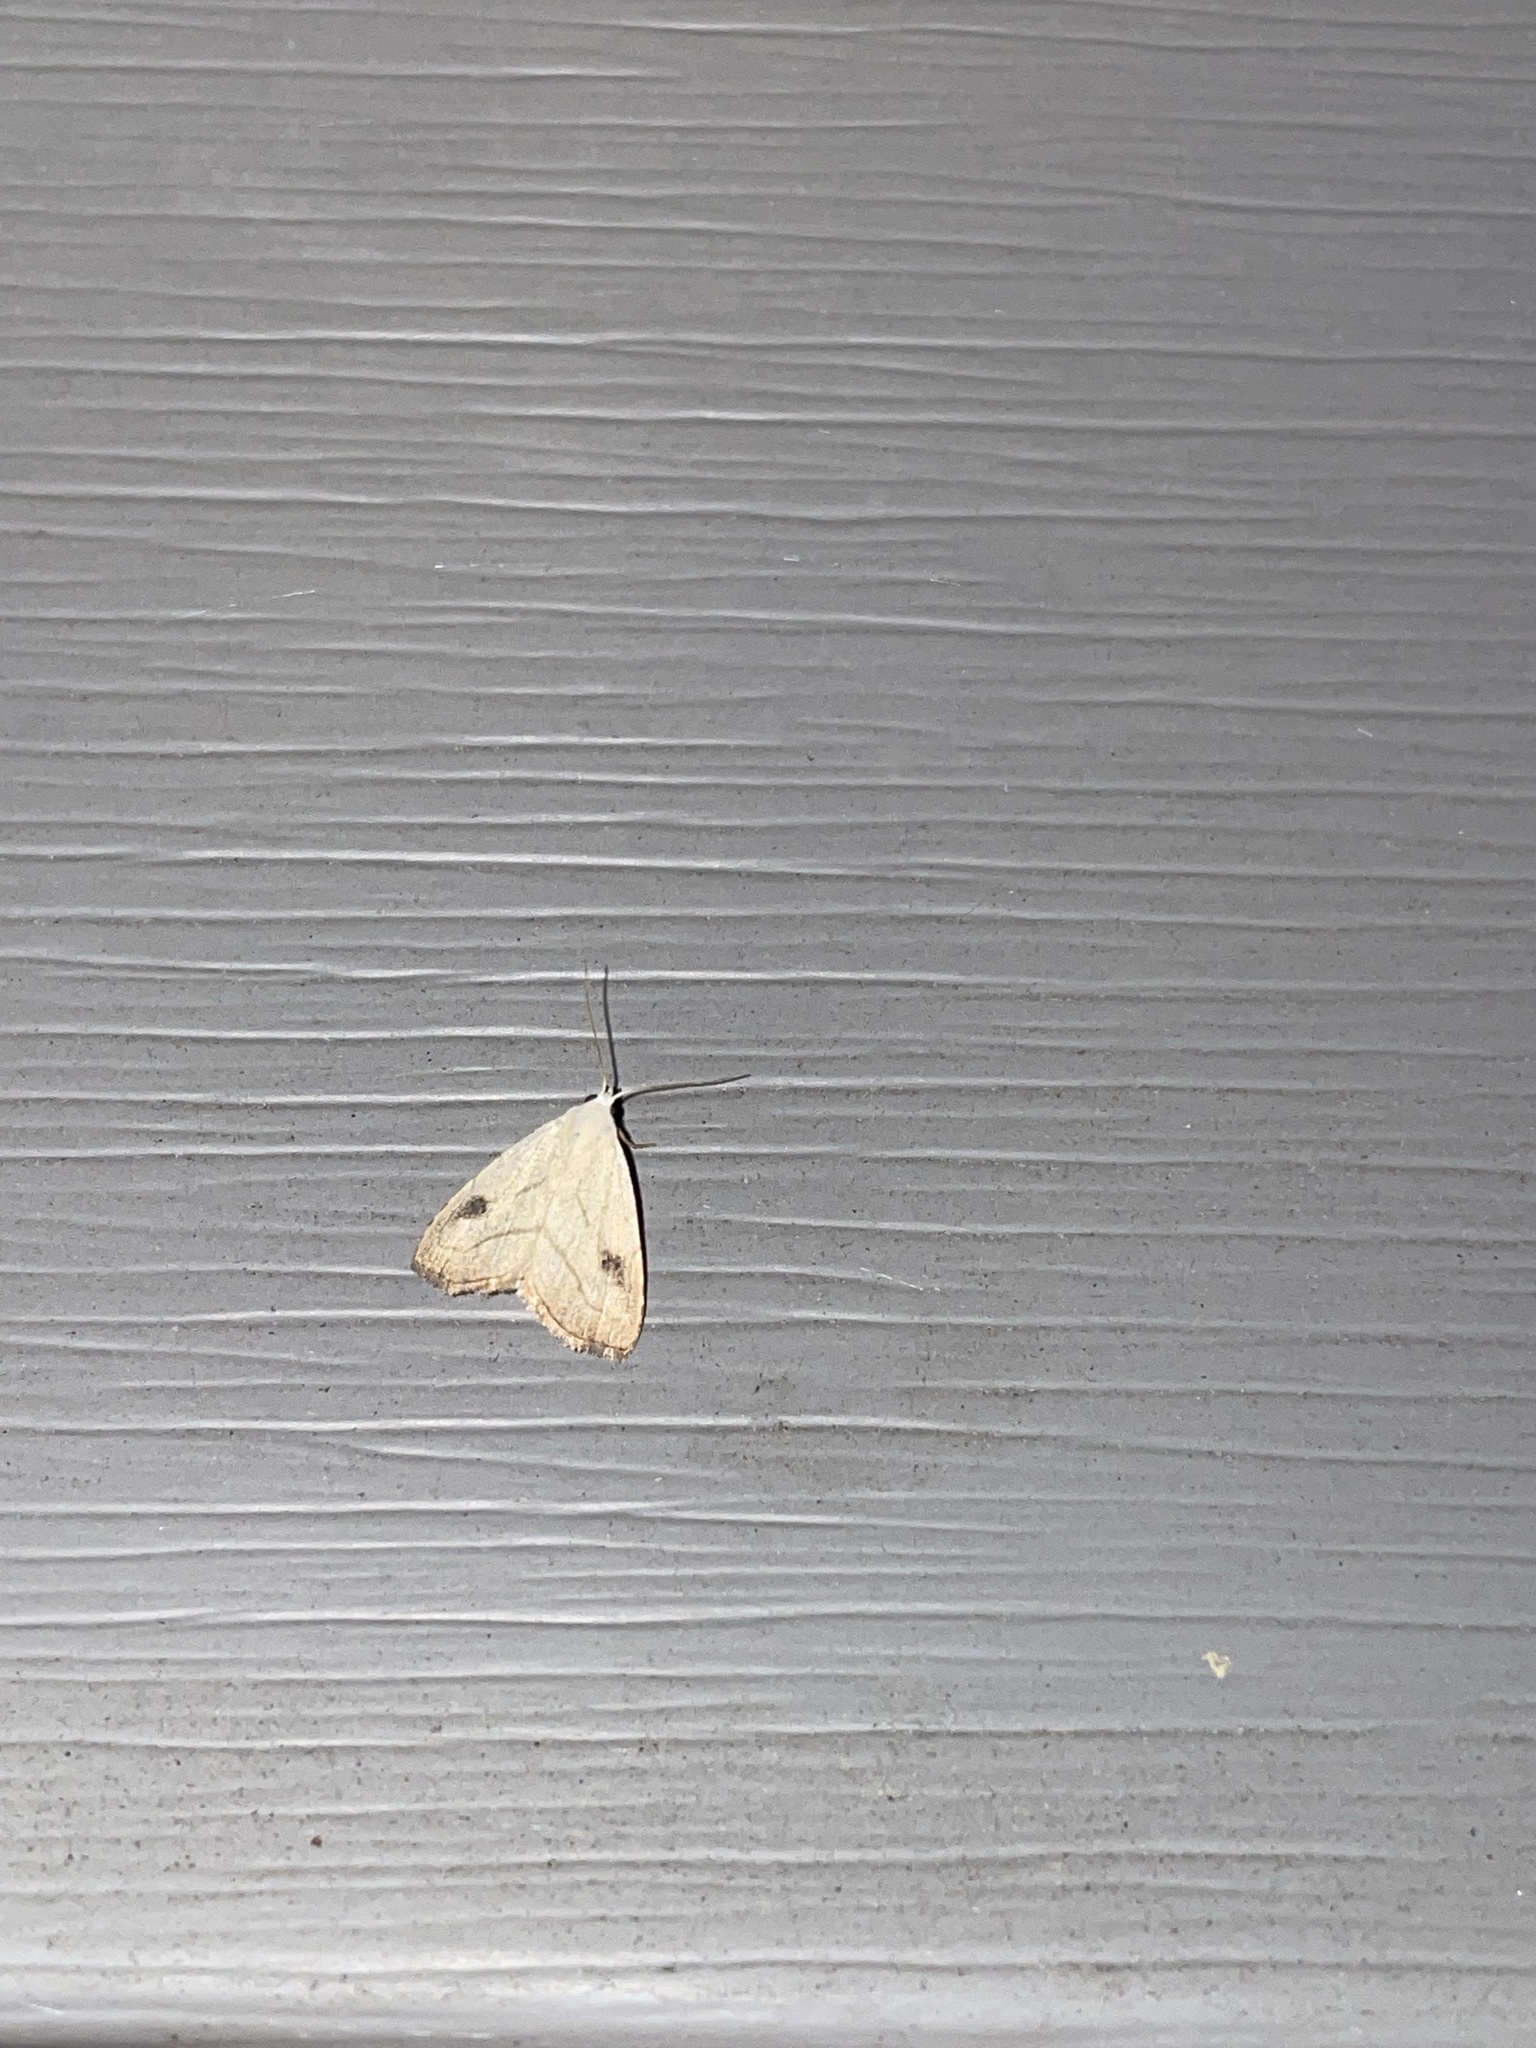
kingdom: Animalia
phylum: Arthropoda
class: Insecta
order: Lepidoptera
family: Erebidae
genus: Rivula
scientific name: Rivula propinqualis
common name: Spotted grass moth
